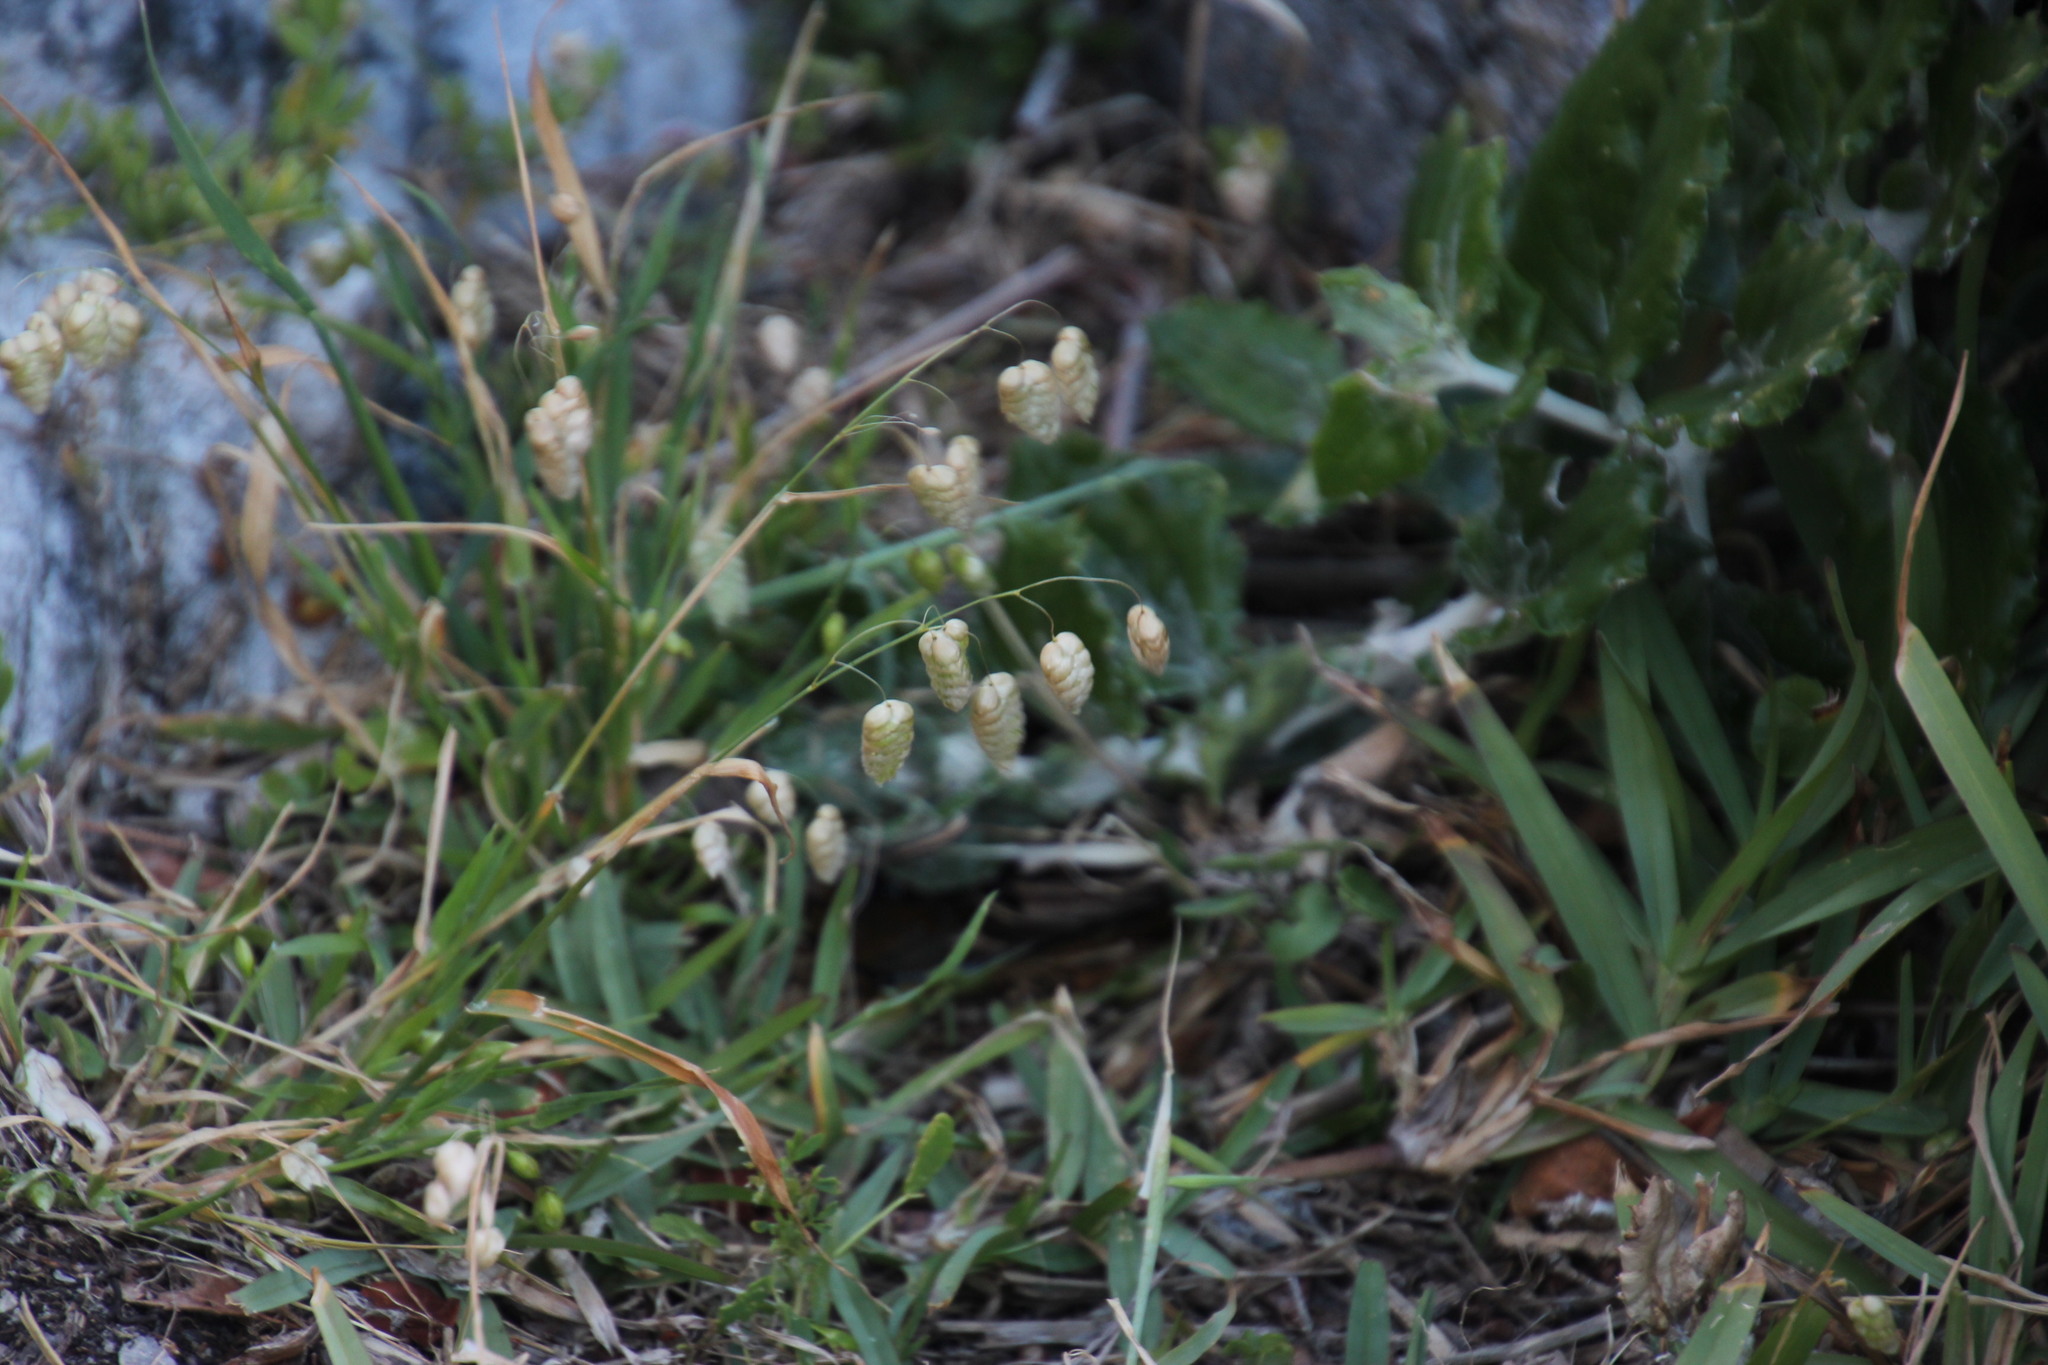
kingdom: Plantae
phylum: Tracheophyta
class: Liliopsida
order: Poales
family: Poaceae
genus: Briza
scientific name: Briza maxima
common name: Big quakinggrass
